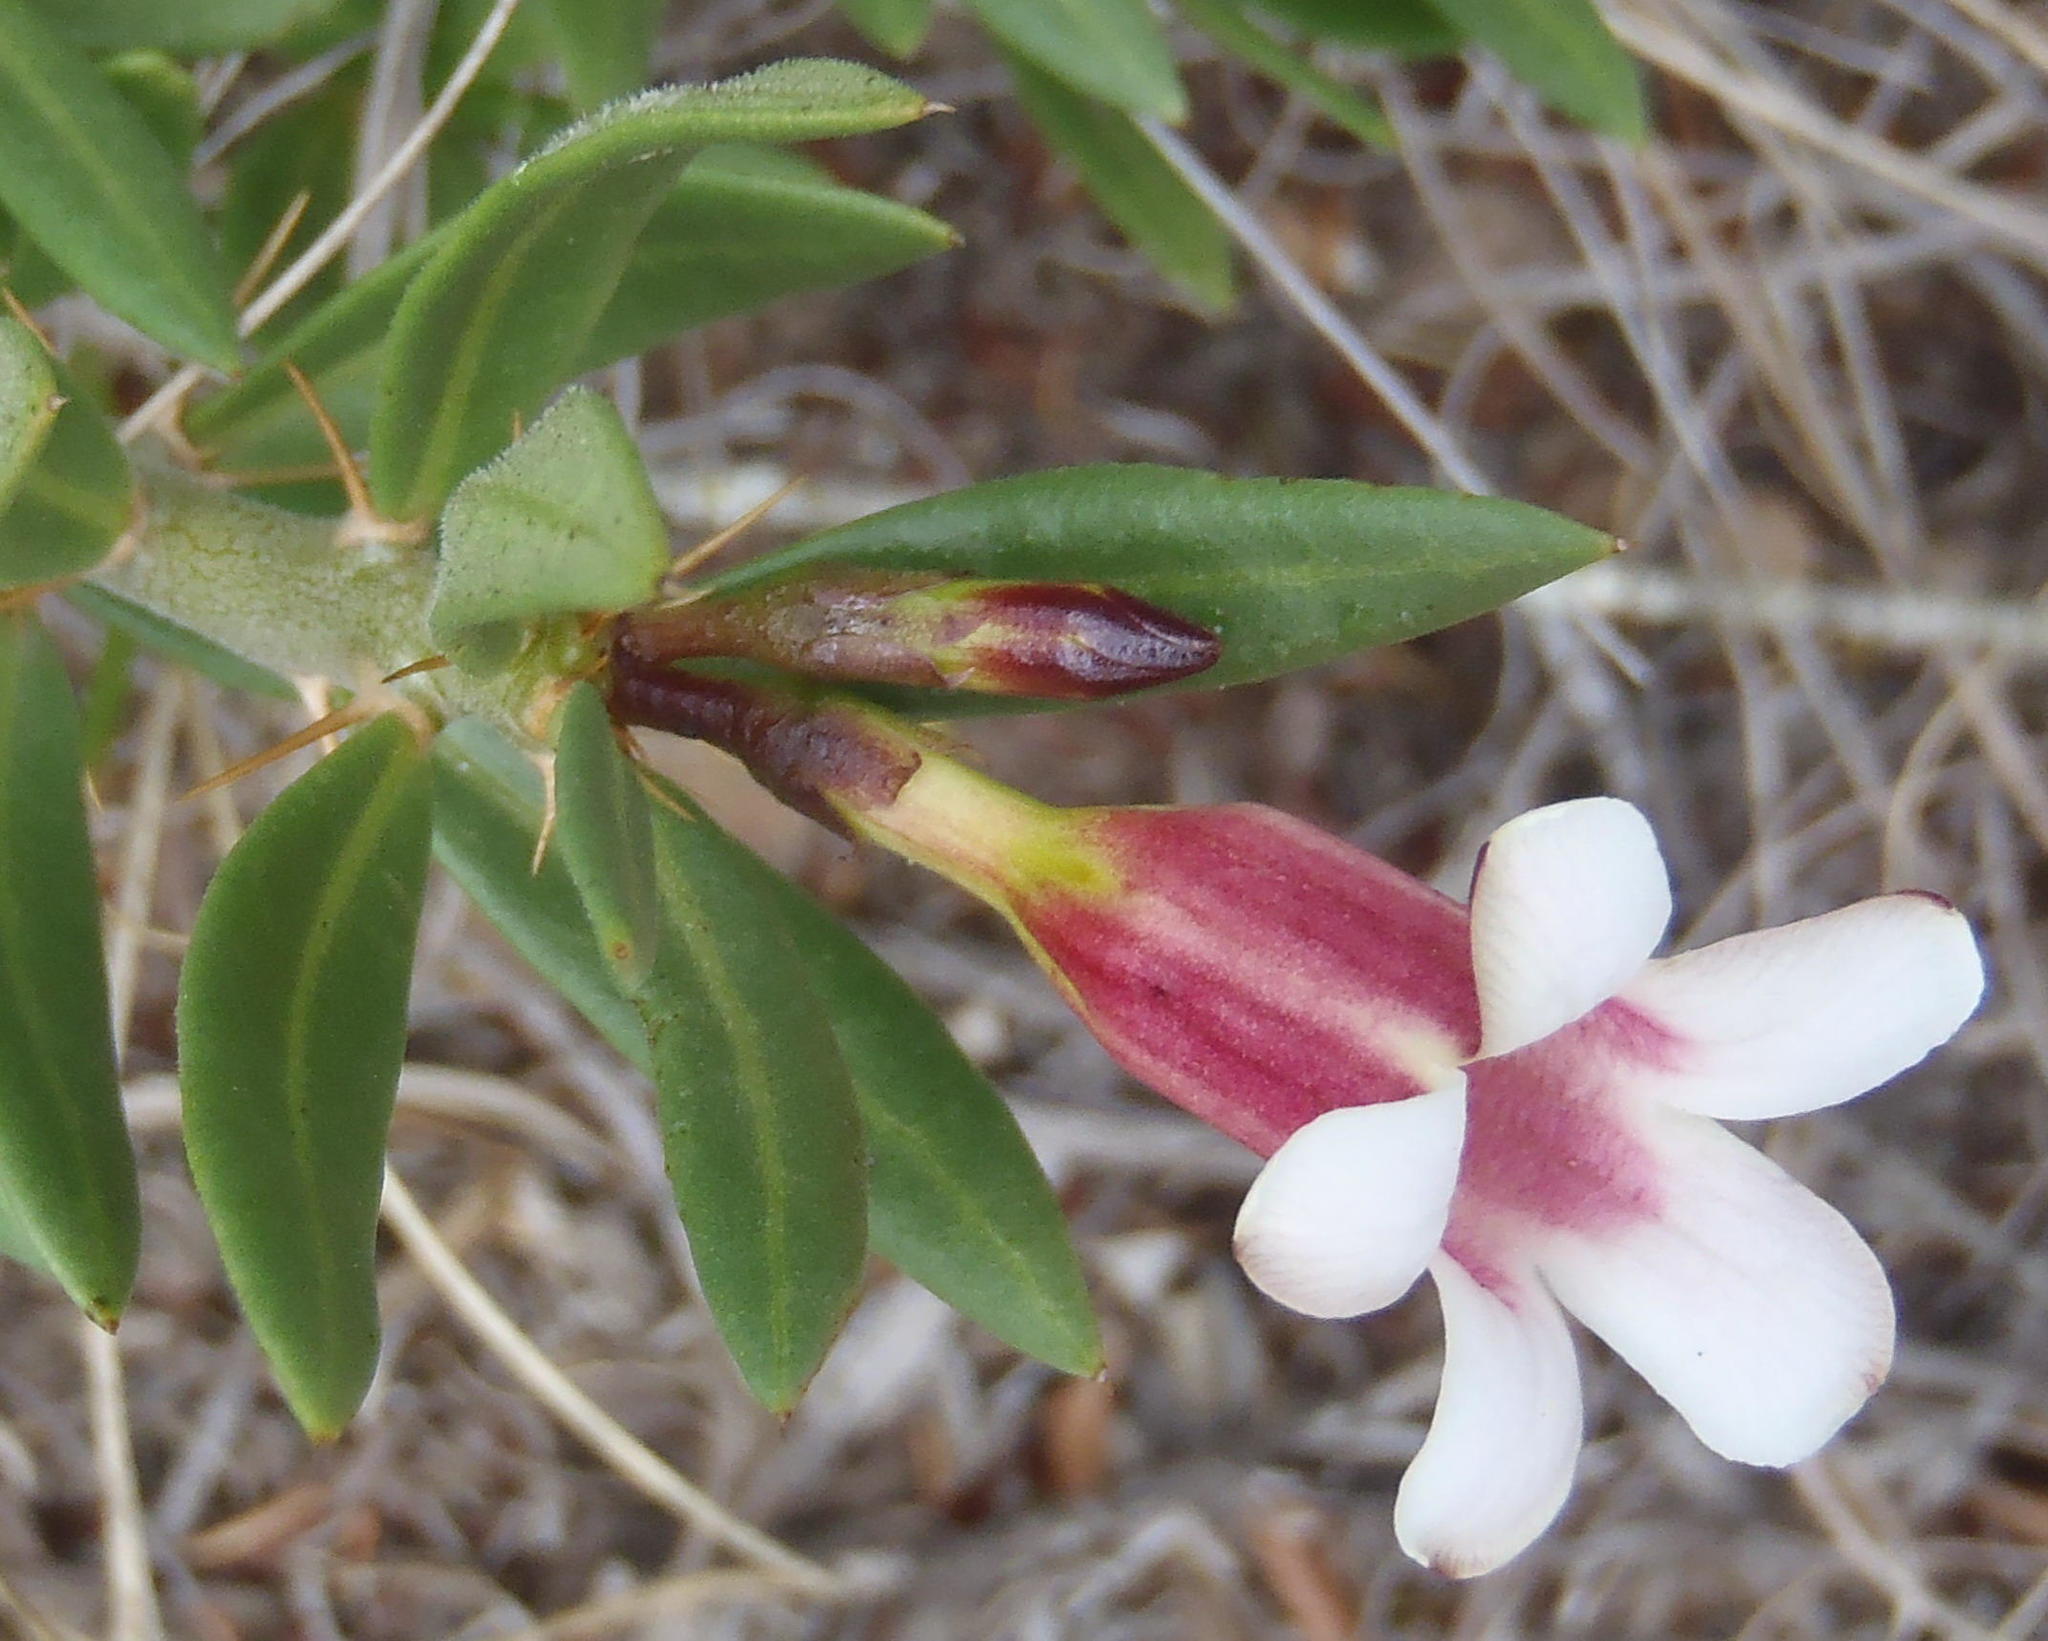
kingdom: Plantae
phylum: Tracheophyta
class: Magnoliopsida
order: Gentianales
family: Apocynaceae
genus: Pachypodium
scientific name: Pachypodium bispinosum
